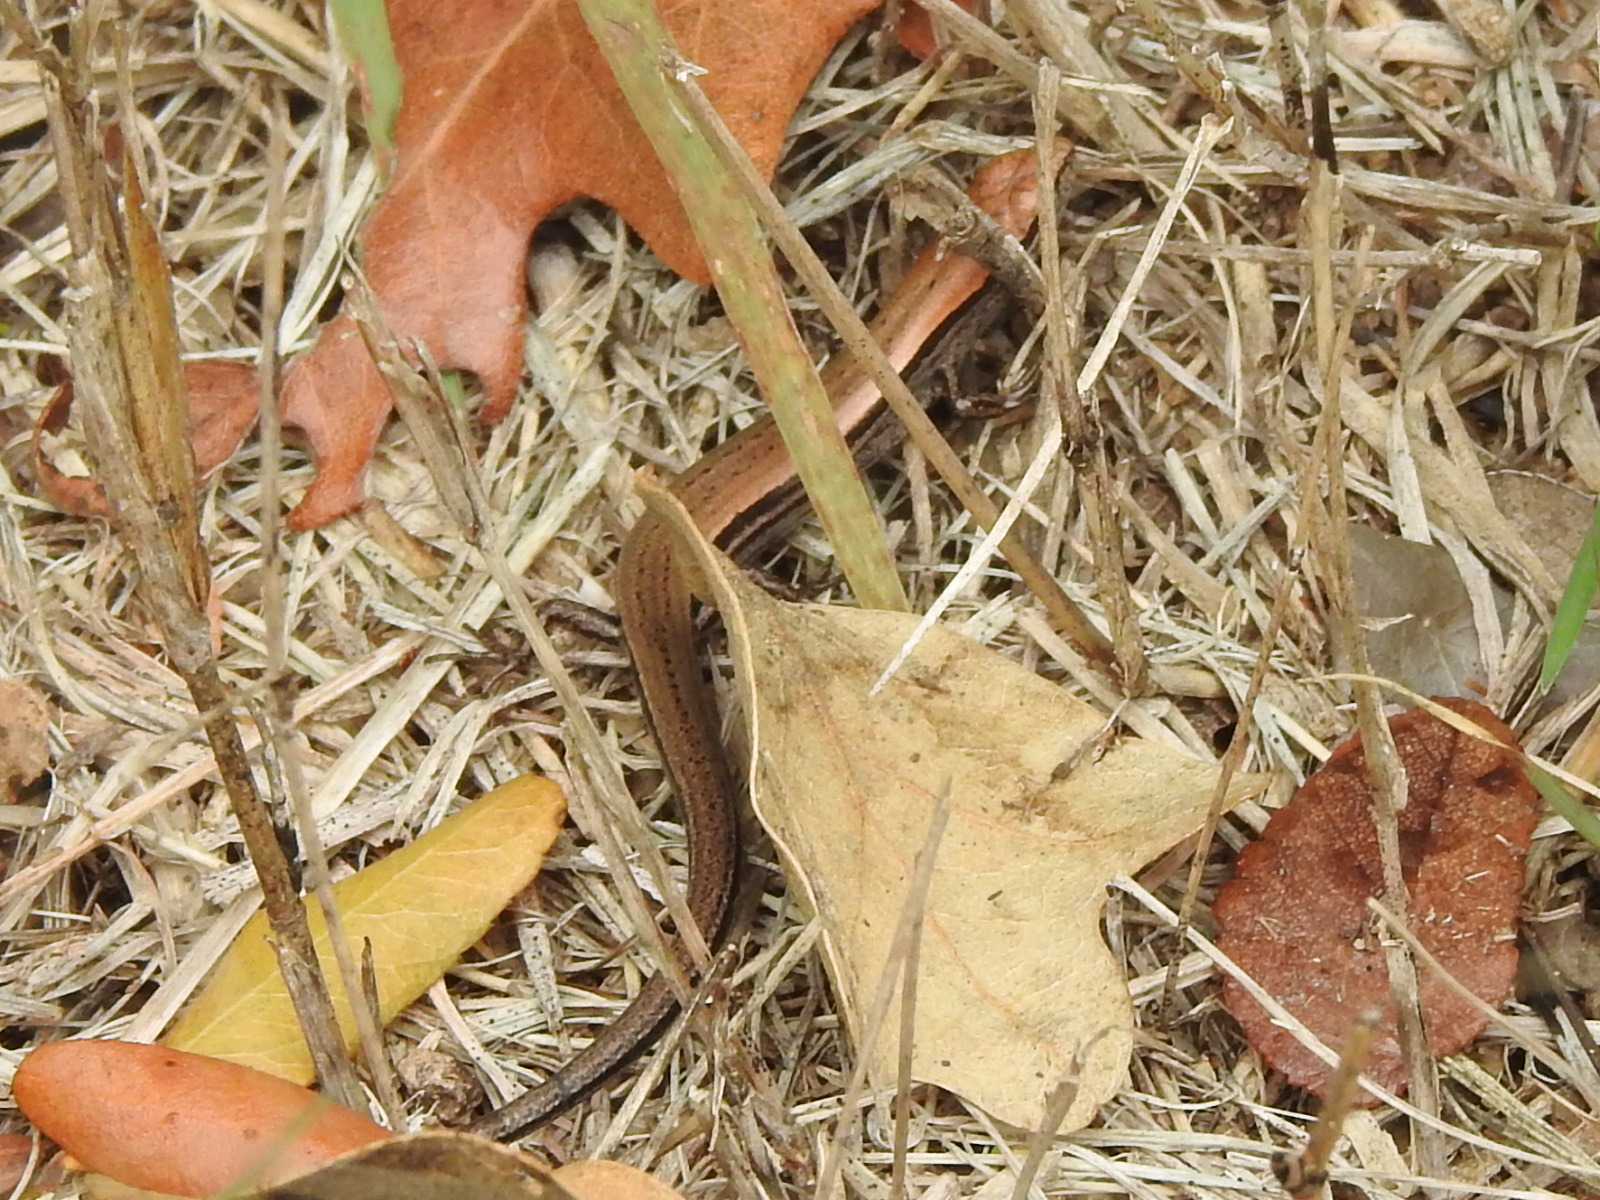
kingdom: Animalia
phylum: Chordata
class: Squamata
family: Scincidae
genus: Scincella
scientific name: Scincella lateralis
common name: Ground skink
